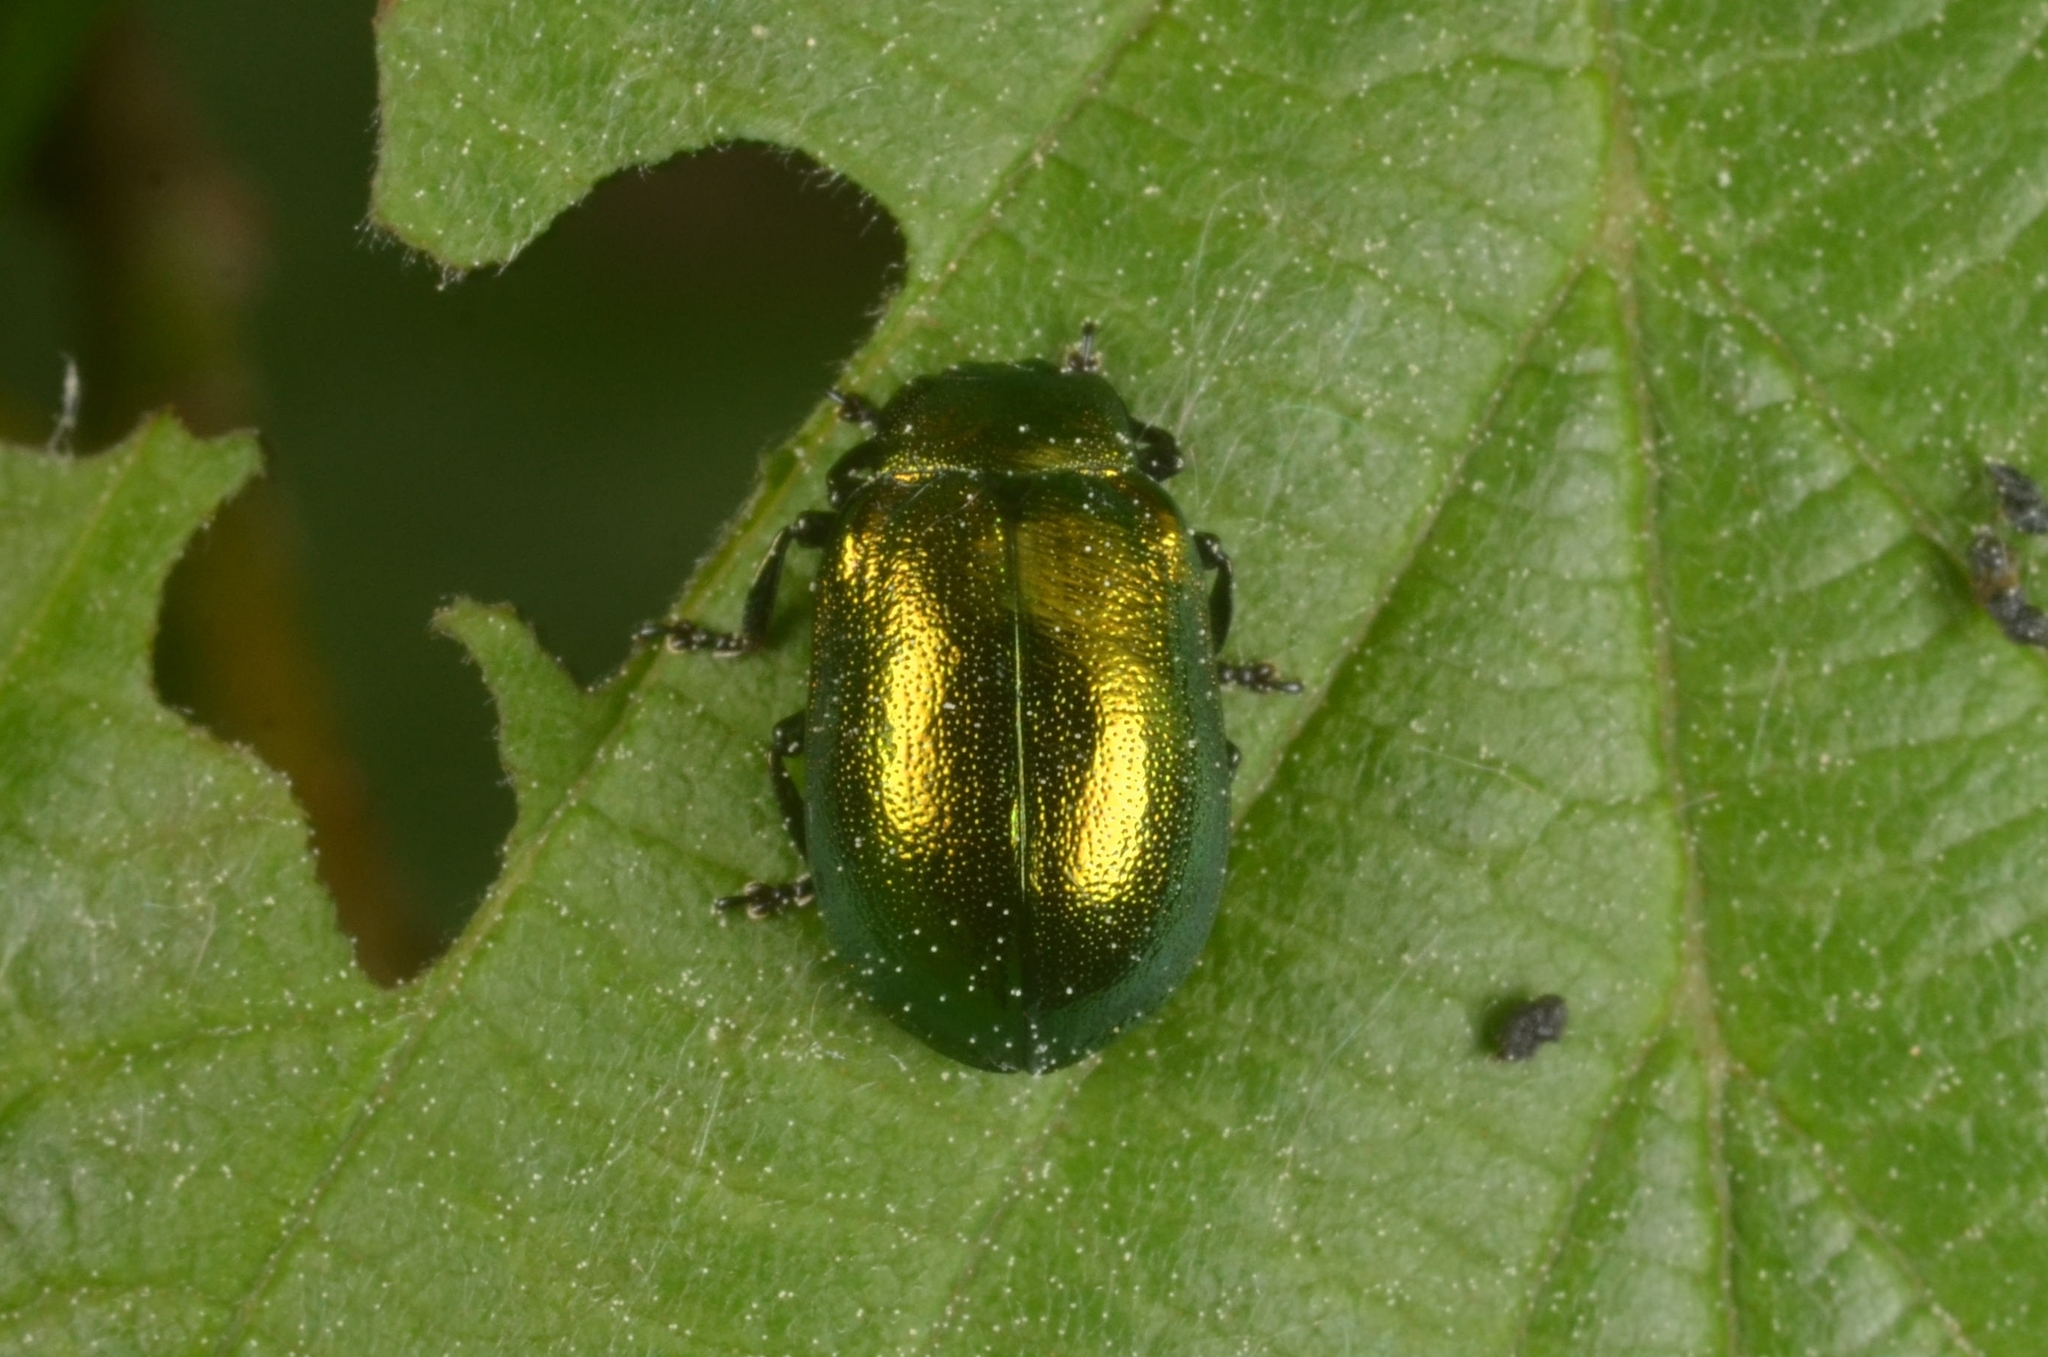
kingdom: Animalia
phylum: Arthropoda
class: Insecta
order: Coleoptera
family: Chrysomelidae
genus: Plagiosterna
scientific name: Plagiosterna aenea
